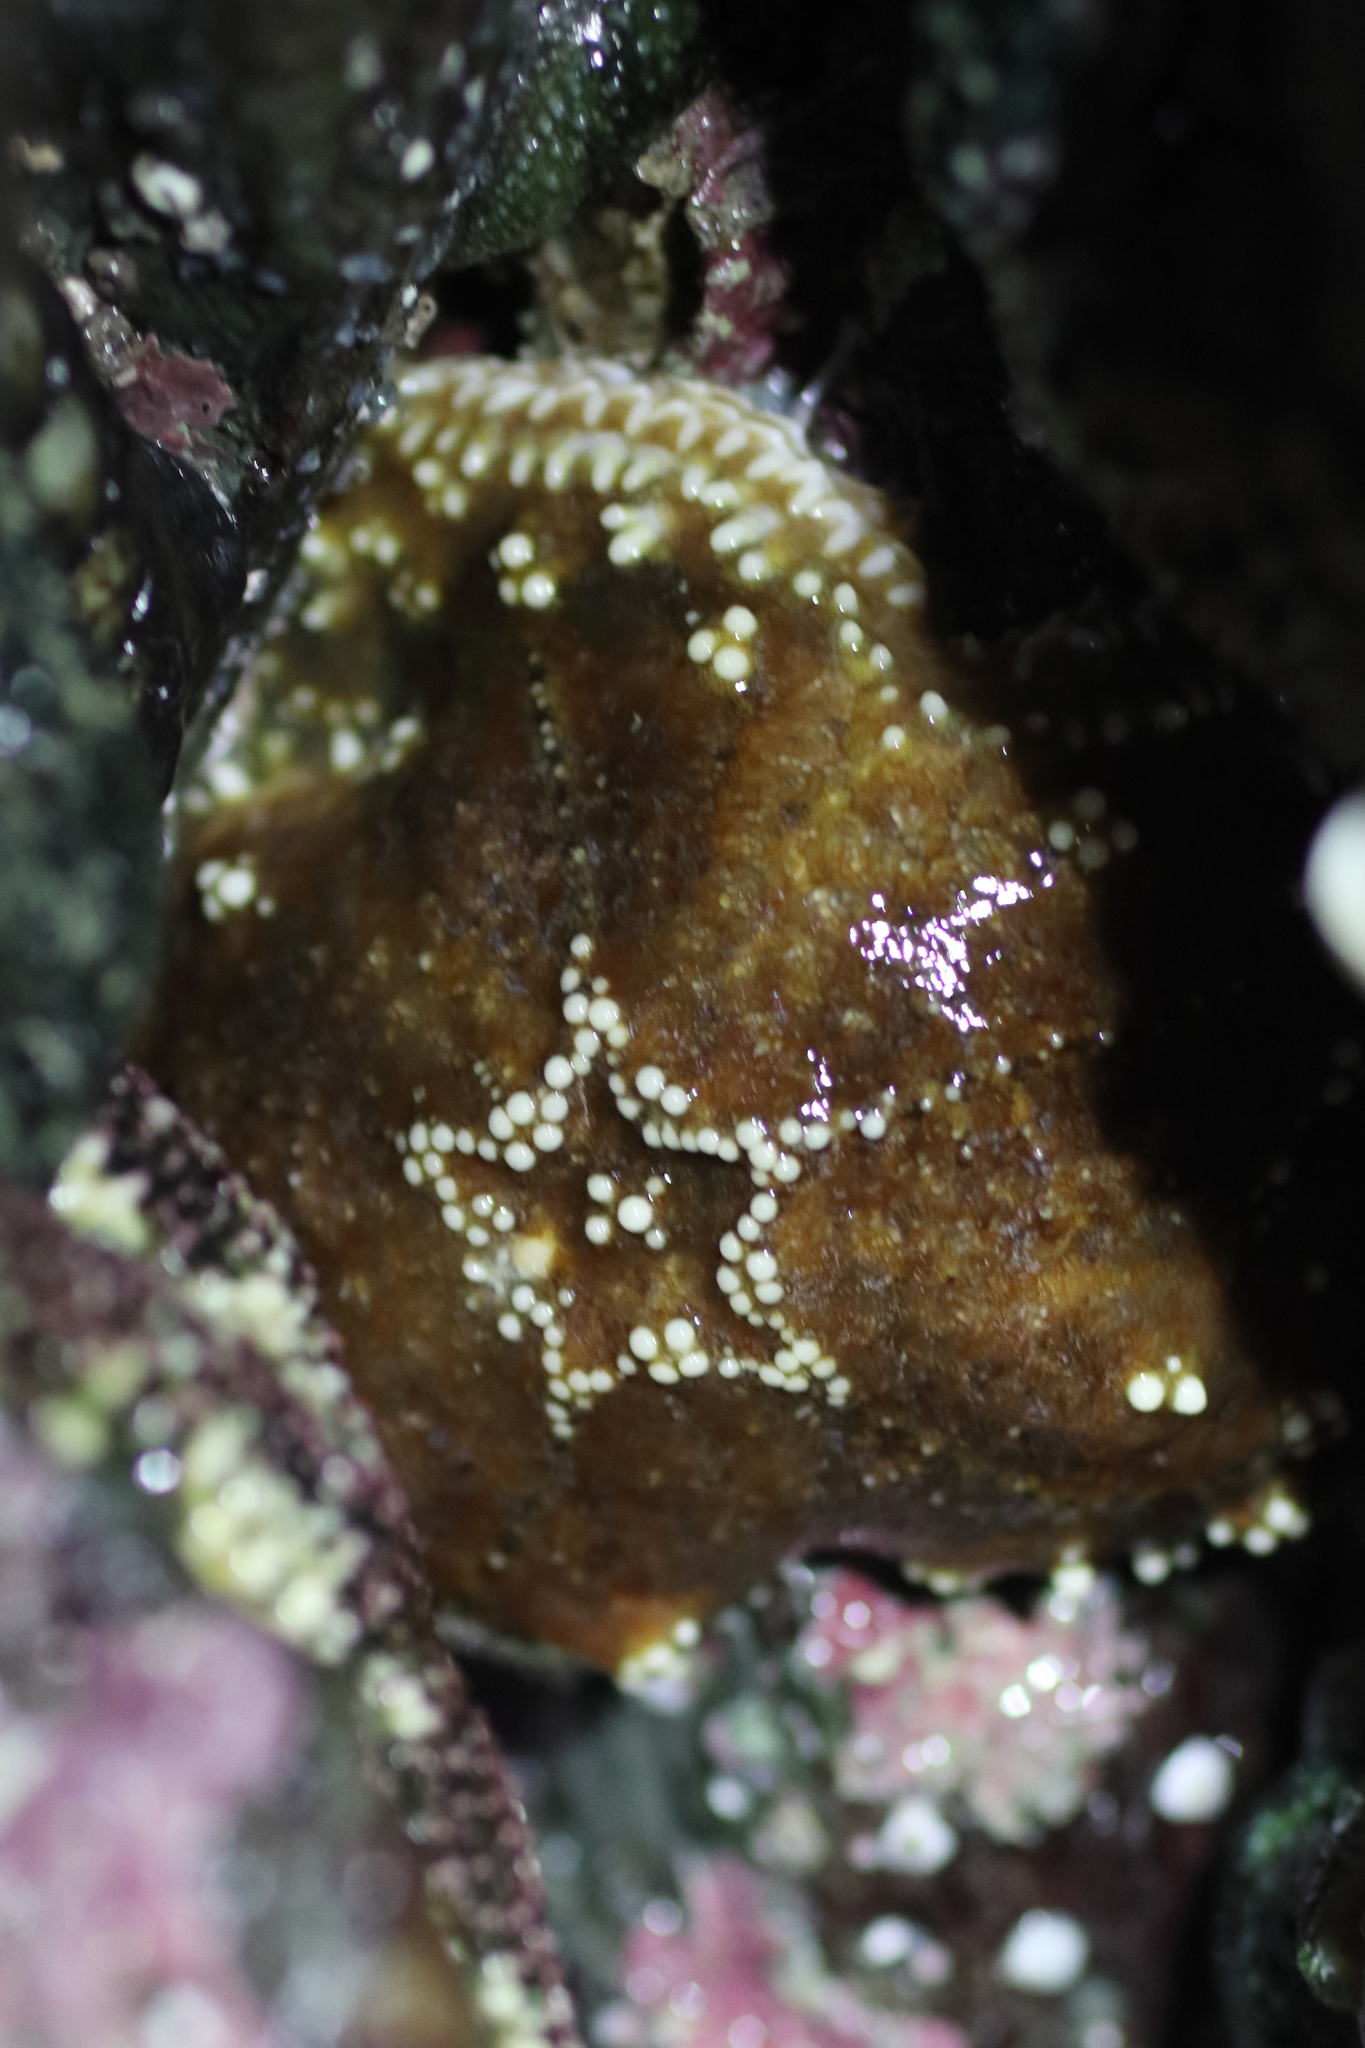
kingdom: Animalia
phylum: Echinodermata
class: Asteroidea
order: Forcipulatida
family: Asteriidae
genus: Pisaster
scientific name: Pisaster ochraceus
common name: Ochre stars
